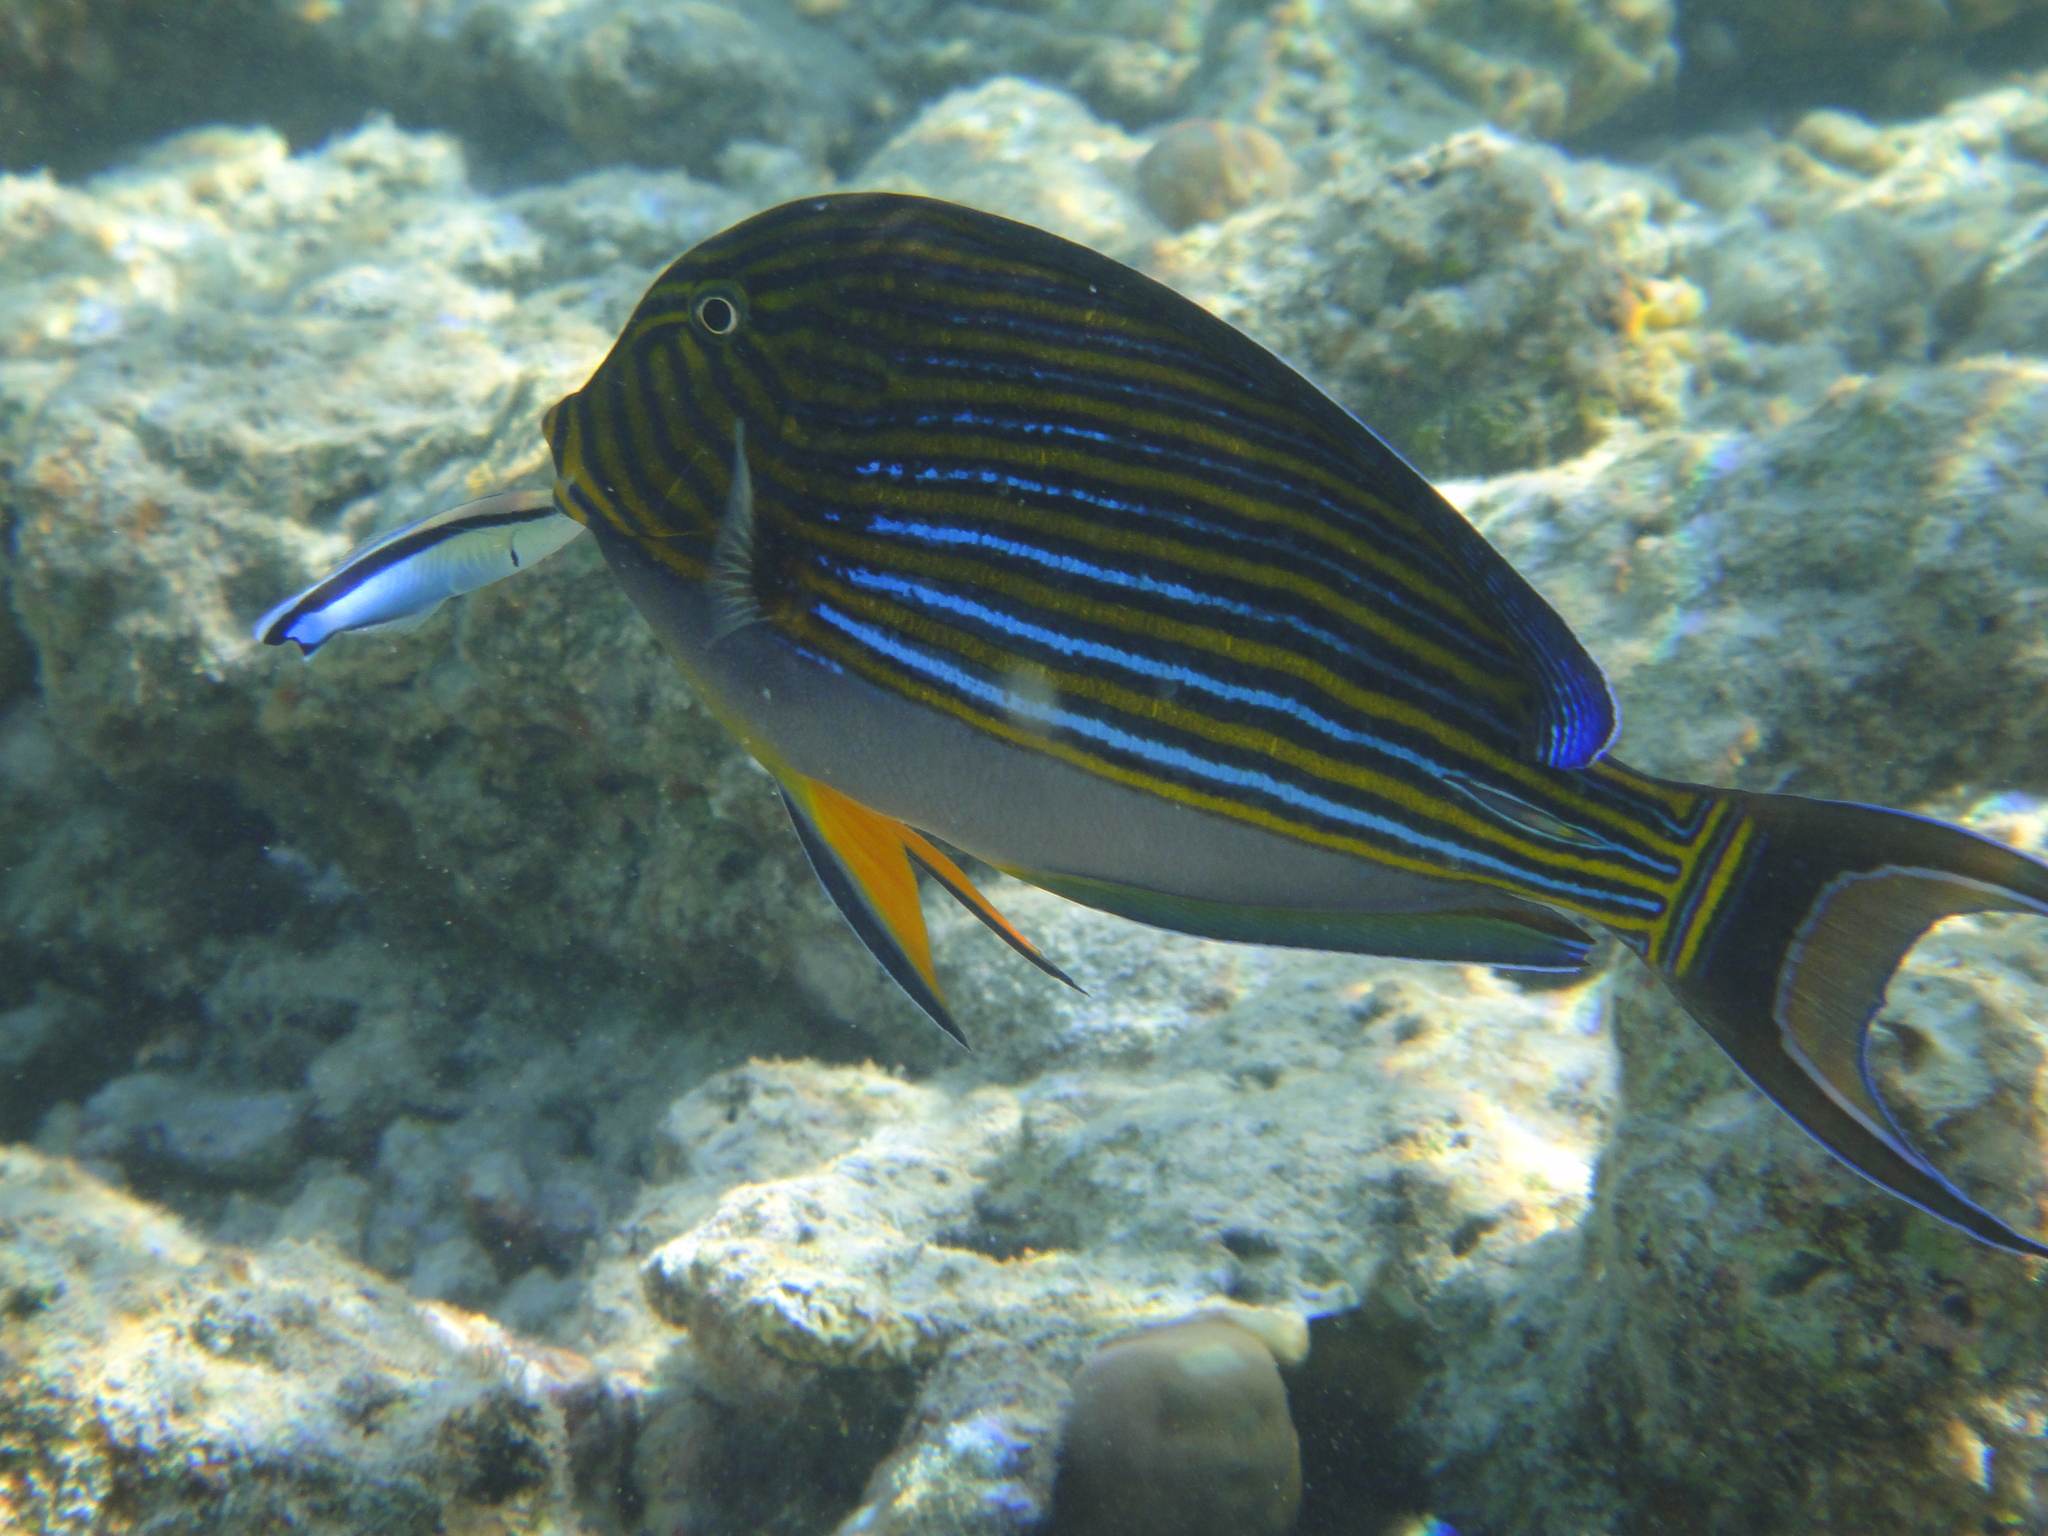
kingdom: Animalia
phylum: Chordata
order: Perciformes
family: Acanthuridae
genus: Acanthurus
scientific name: Acanthurus lineatus
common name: Striped surgeonfish
